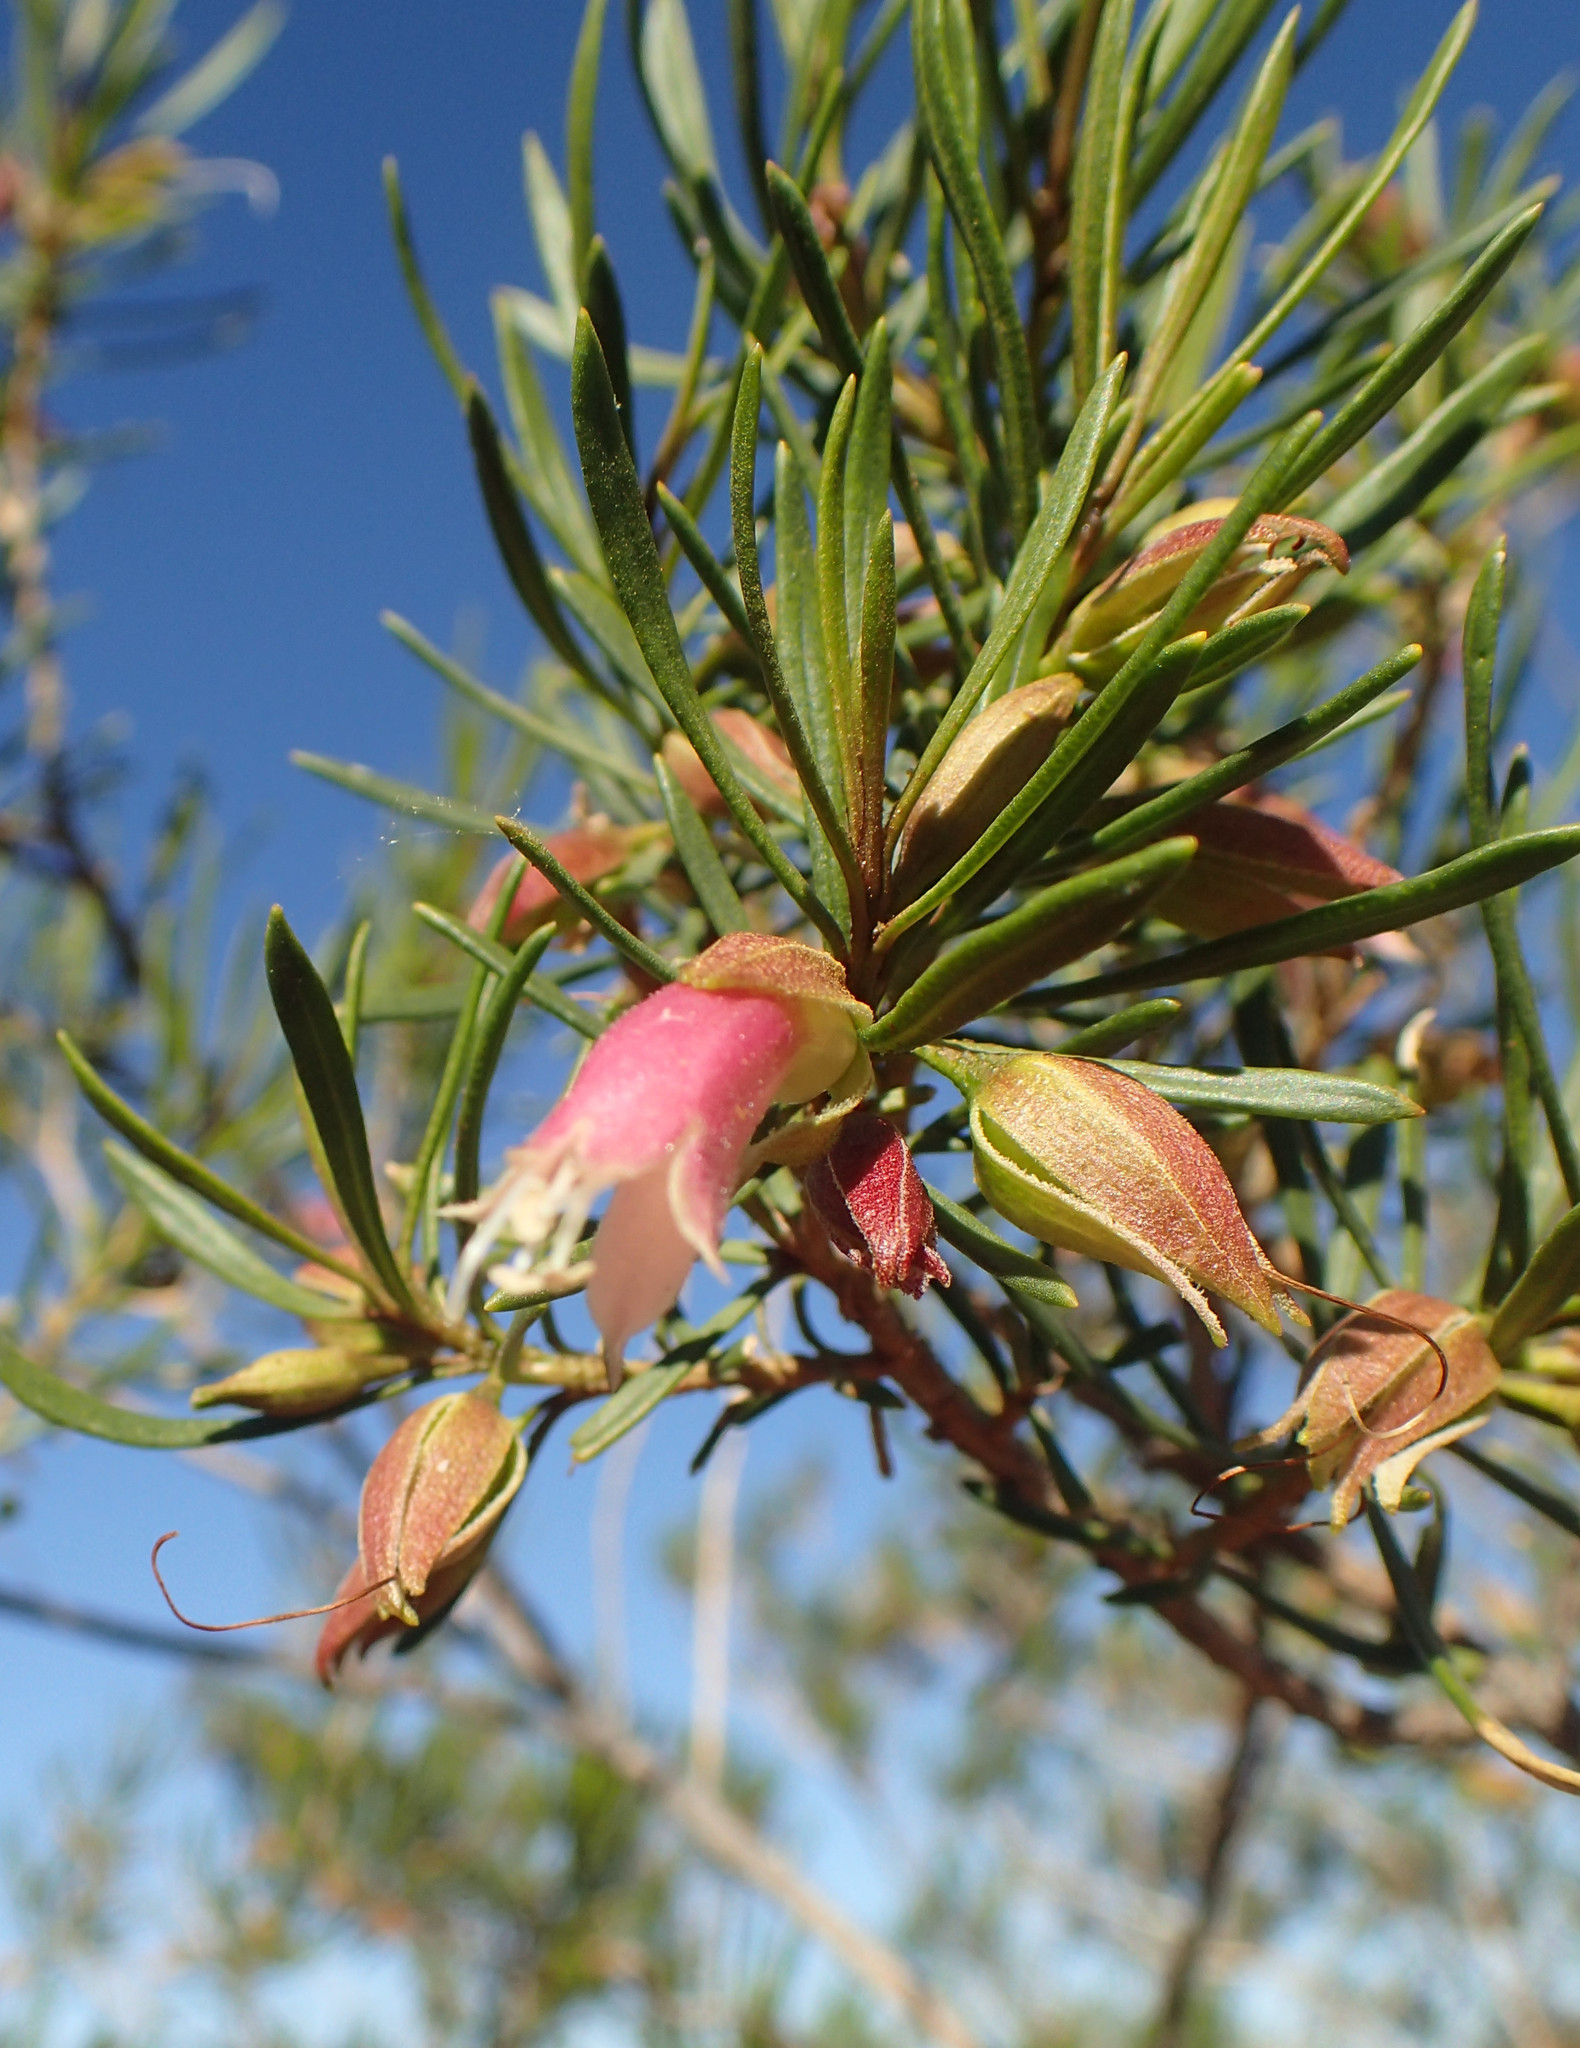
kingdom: Plantae
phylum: Tracheophyta
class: Magnoliopsida
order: Lamiales
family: Scrophulariaceae
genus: Eremophila
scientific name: Eremophila latrobei
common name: Crimson turkeybush
